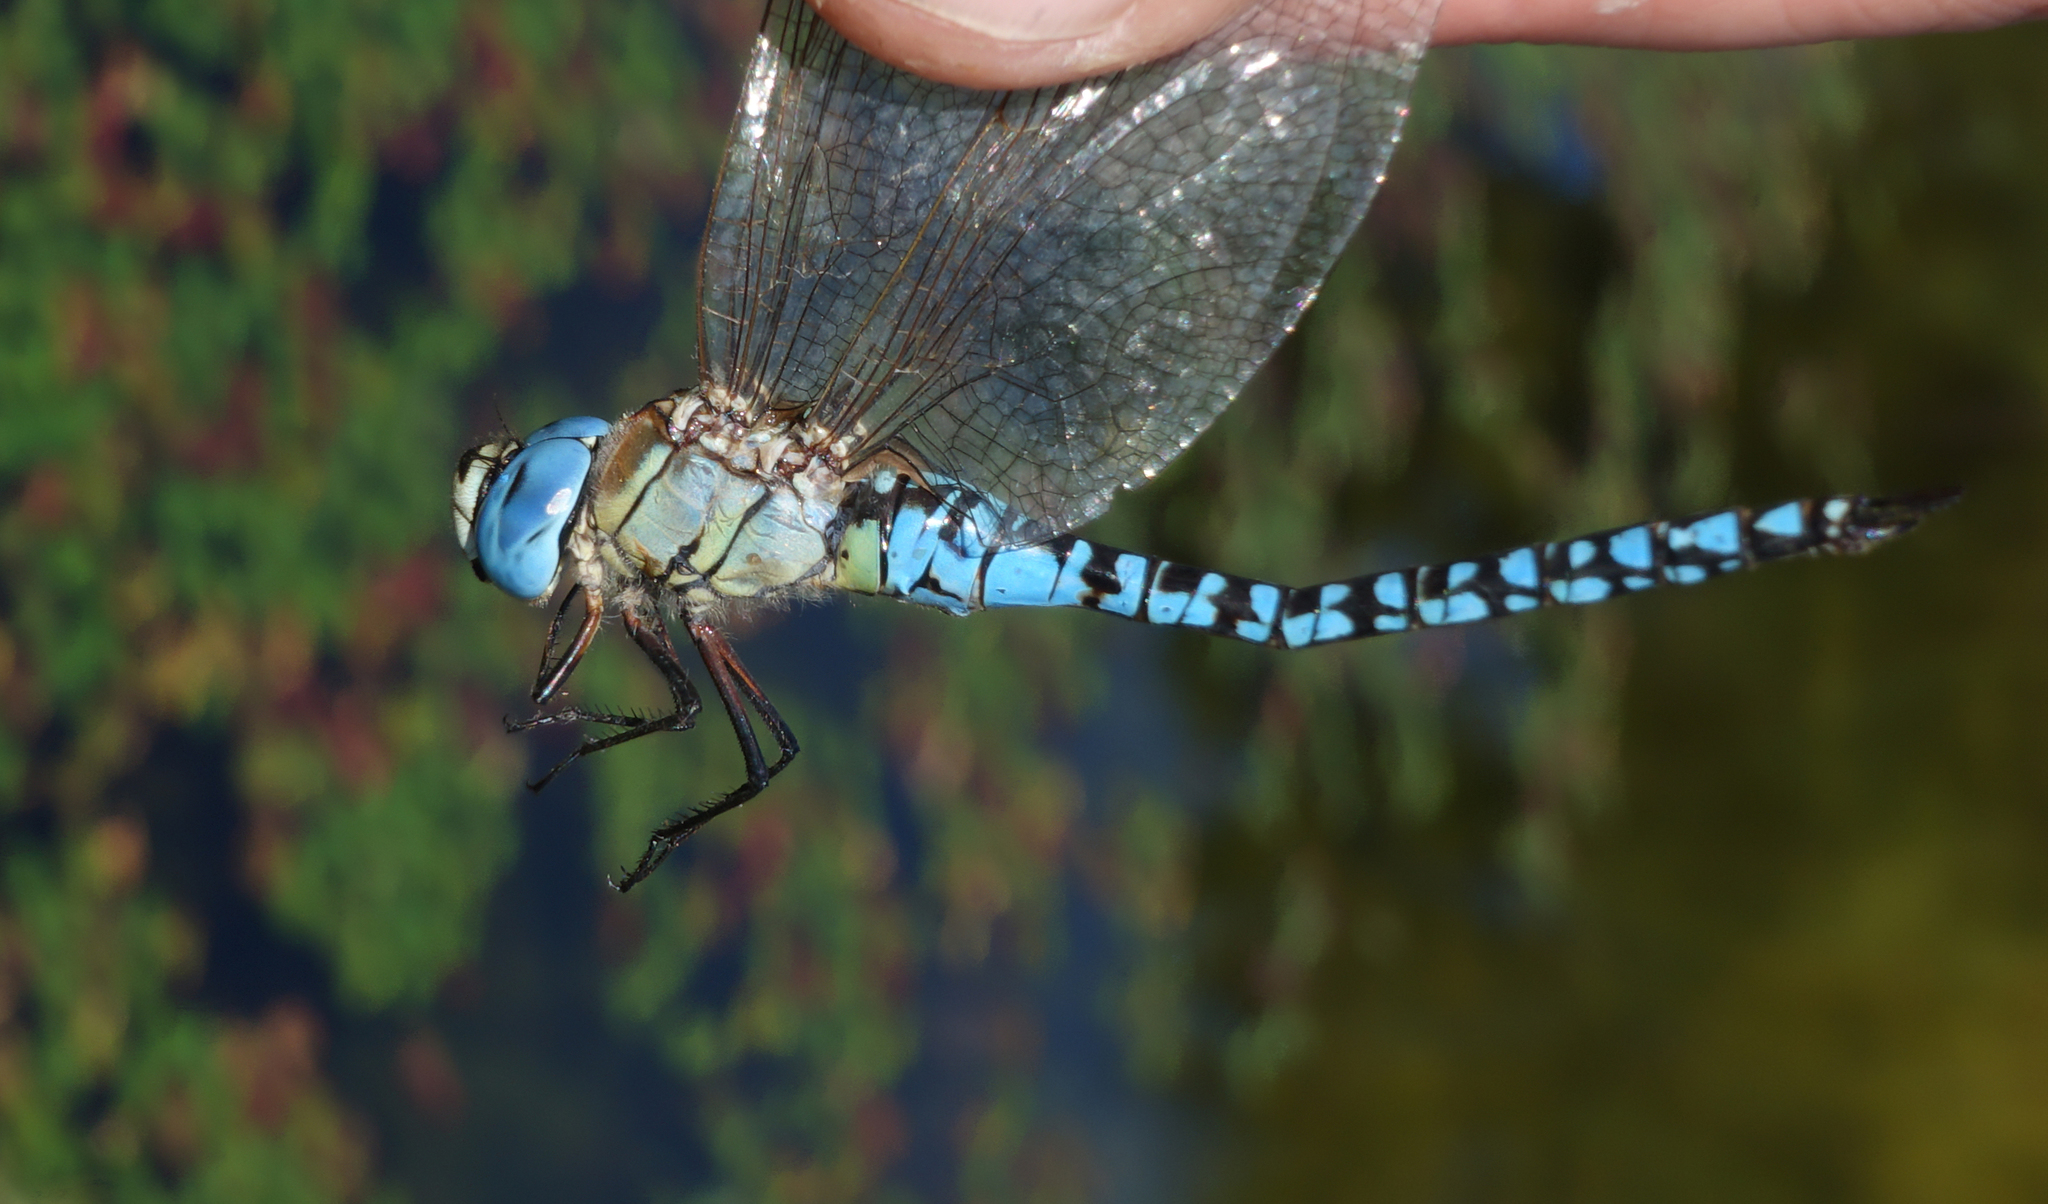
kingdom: Animalia
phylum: Arthropoda
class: Insecta
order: Odonata
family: Aeshnidae
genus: Aeshna
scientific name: Aeshna affinis
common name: Southern migrant hawker
